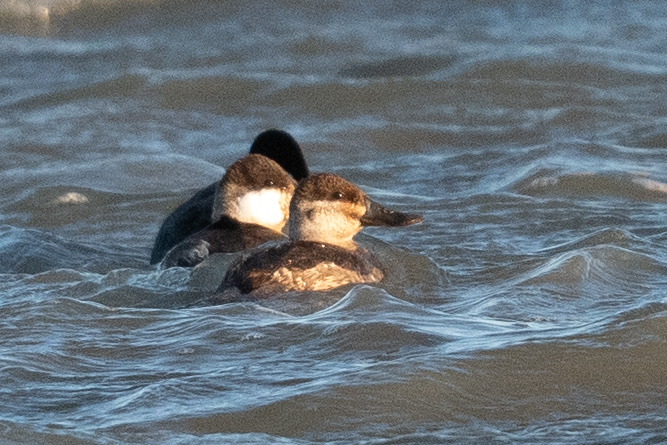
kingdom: Animalia
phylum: Chordata
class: Aves
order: Anseriformes
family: Anatidae
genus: Oxyura
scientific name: Oxyura jamaicensis
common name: Ruddy duck
